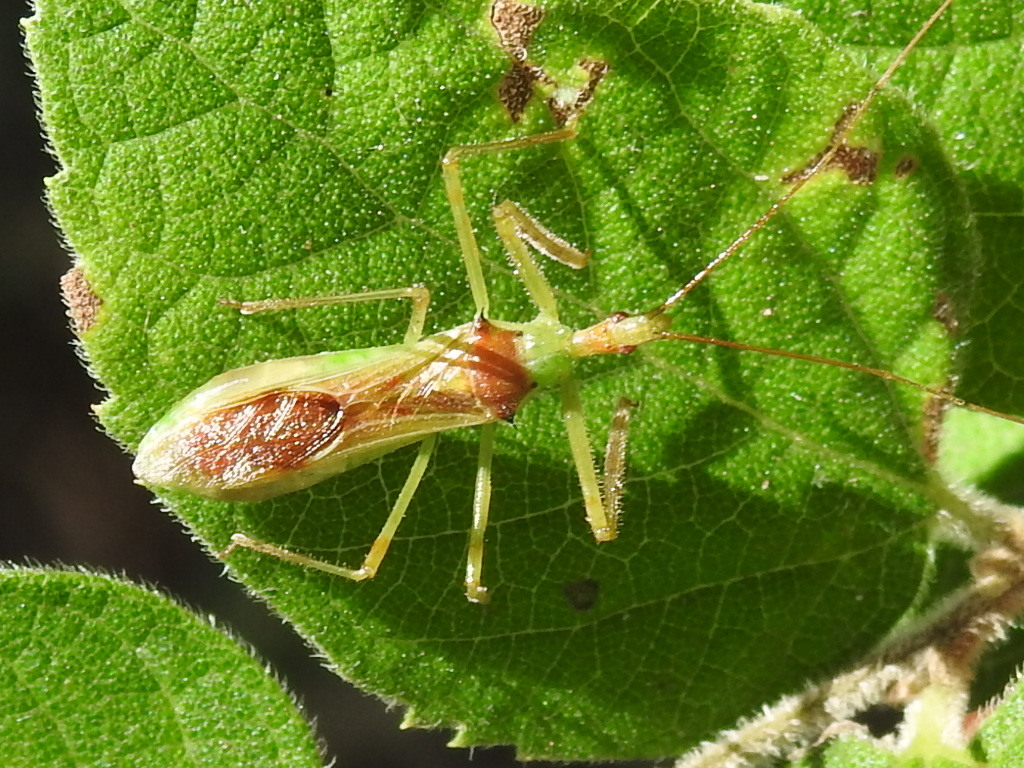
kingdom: Animalia
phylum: Arthropoda
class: Insecta
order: Hemiptera
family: Reduviidae
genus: Zelus
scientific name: Zelus luridus
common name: Pale green assassin bug
